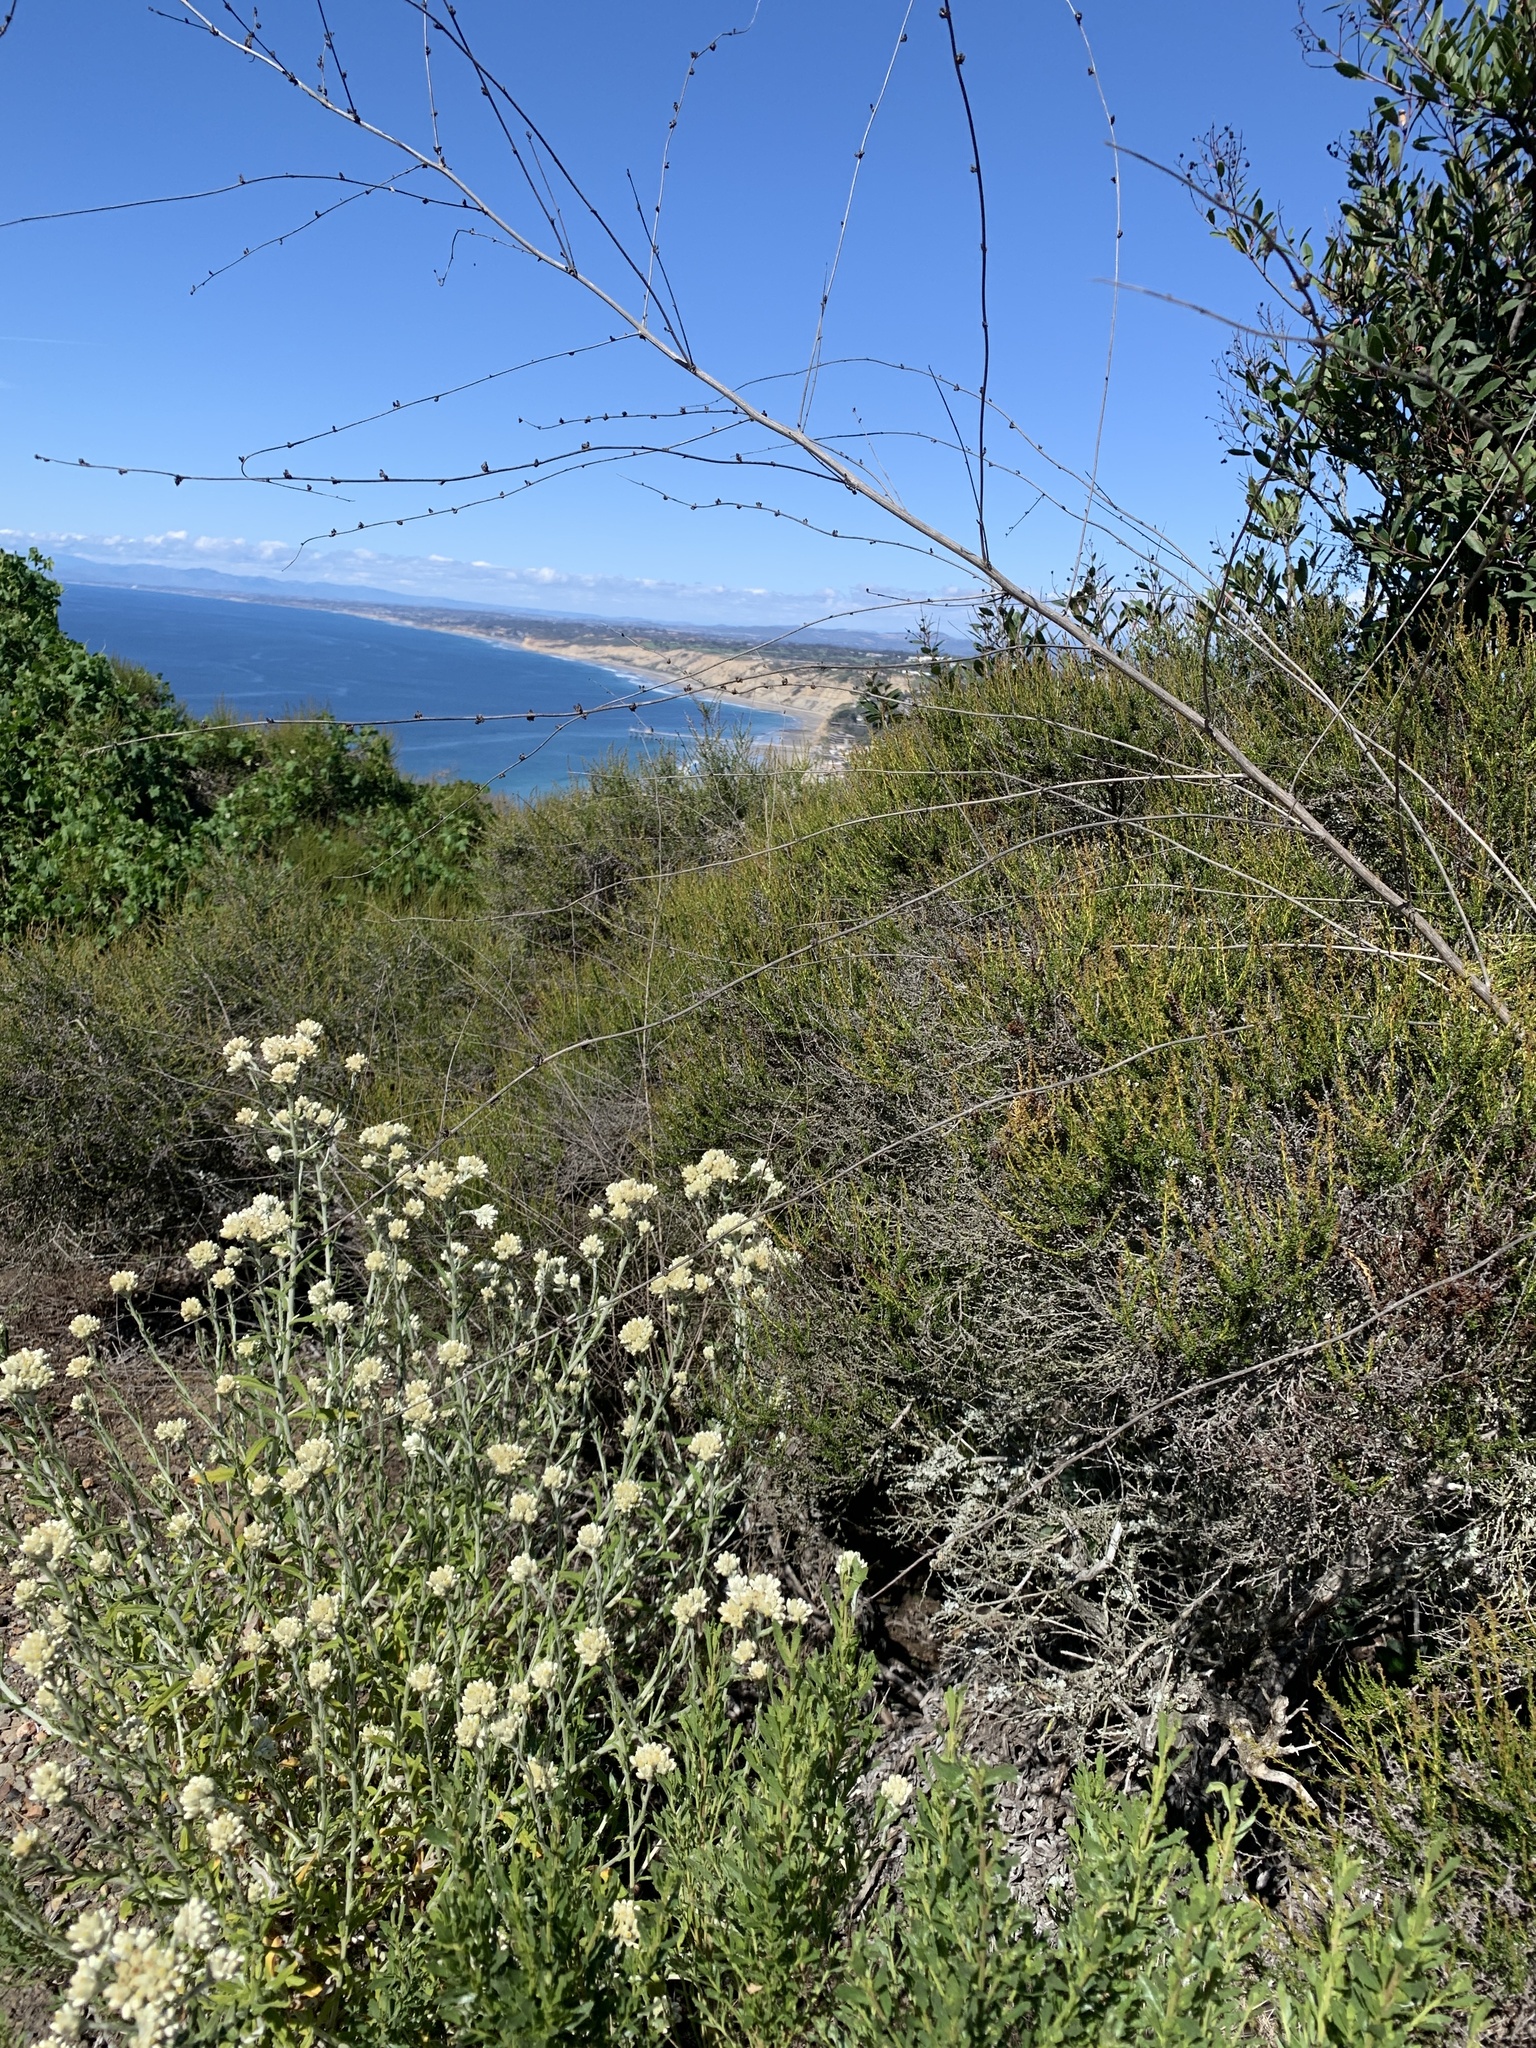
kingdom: Plantae
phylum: Tracheophyta
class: Magnoliopsida
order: Asterales
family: Asteraceae
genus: Pseudognaphalium
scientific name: Pseudognaphalium biolettii
